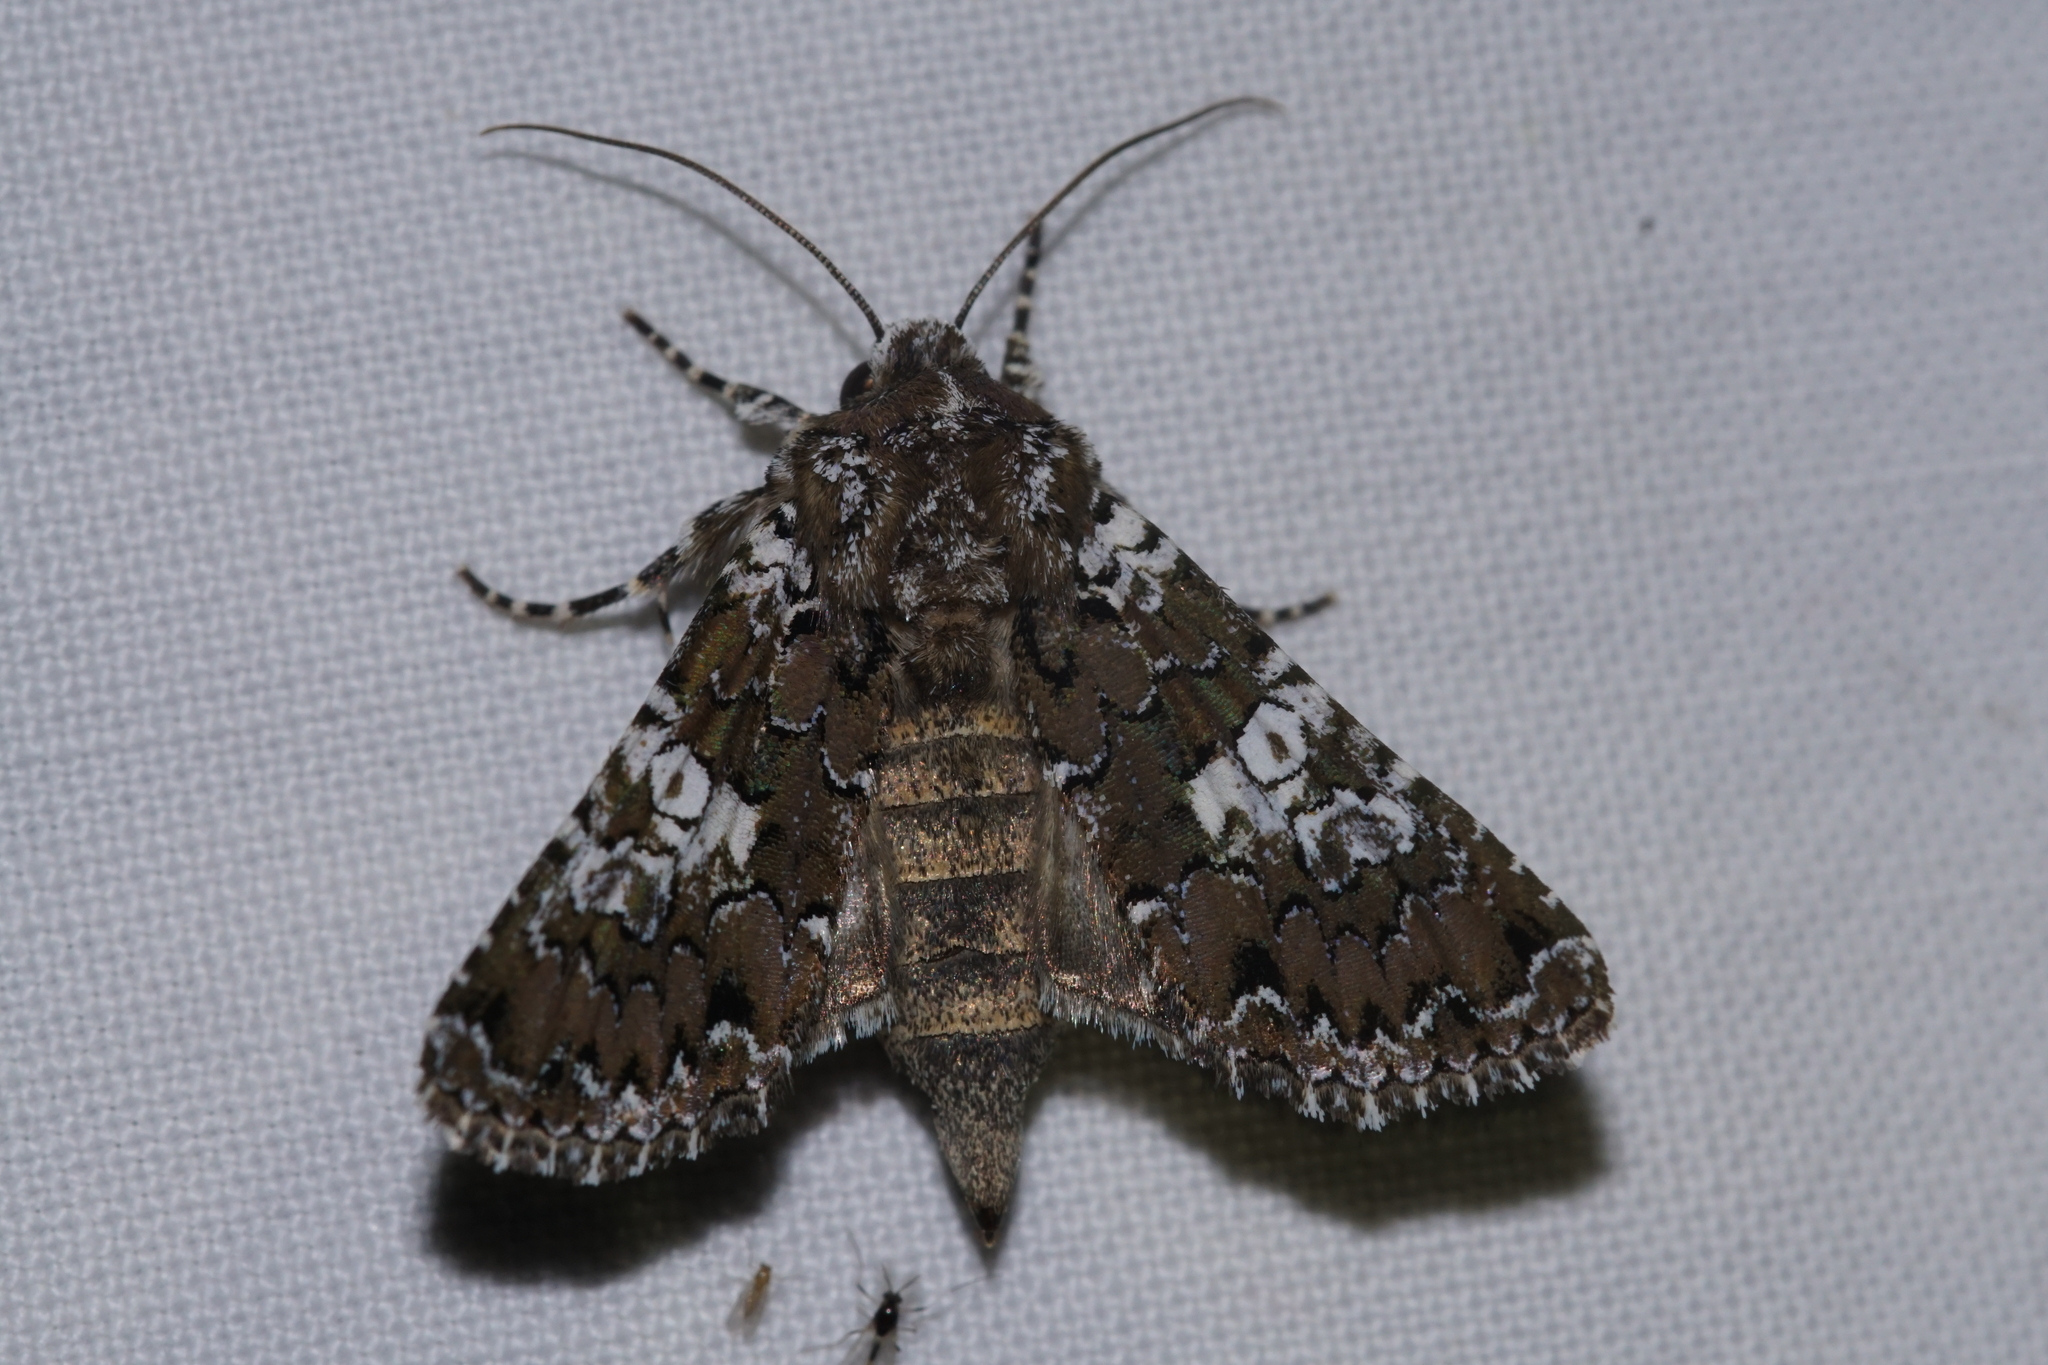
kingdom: Animalia
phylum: Arthropoda
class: Insecta
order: Lepidoptera
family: Noctuidae
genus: Hadena
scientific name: Hadena albimacula
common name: White spot
